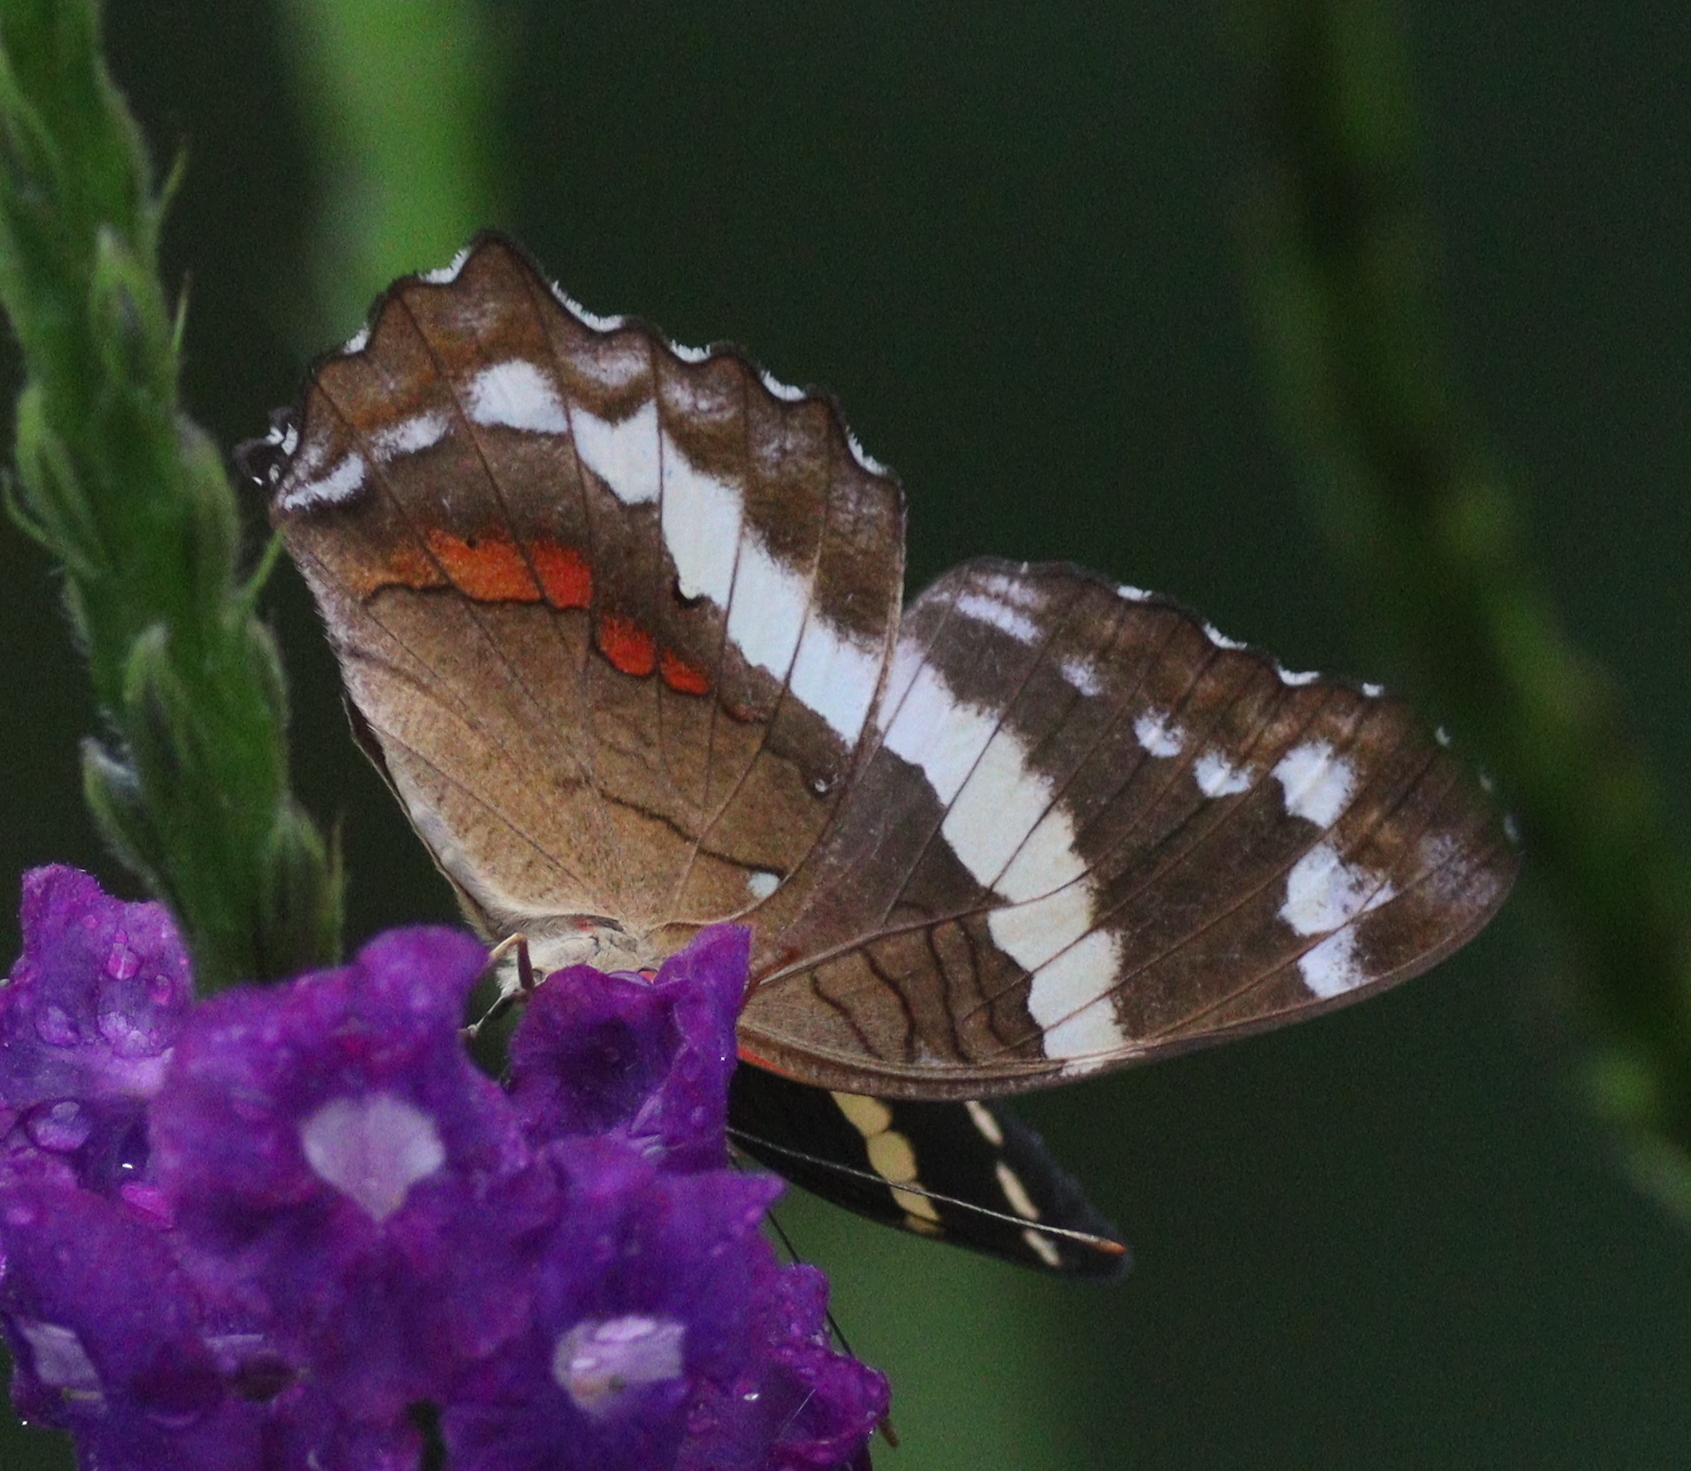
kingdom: Animalia
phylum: Arthropoda
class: Insecta
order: Lepidoptera
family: Nymphalidae
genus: Anartia
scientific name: Anartia fatima
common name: Banded peacock
